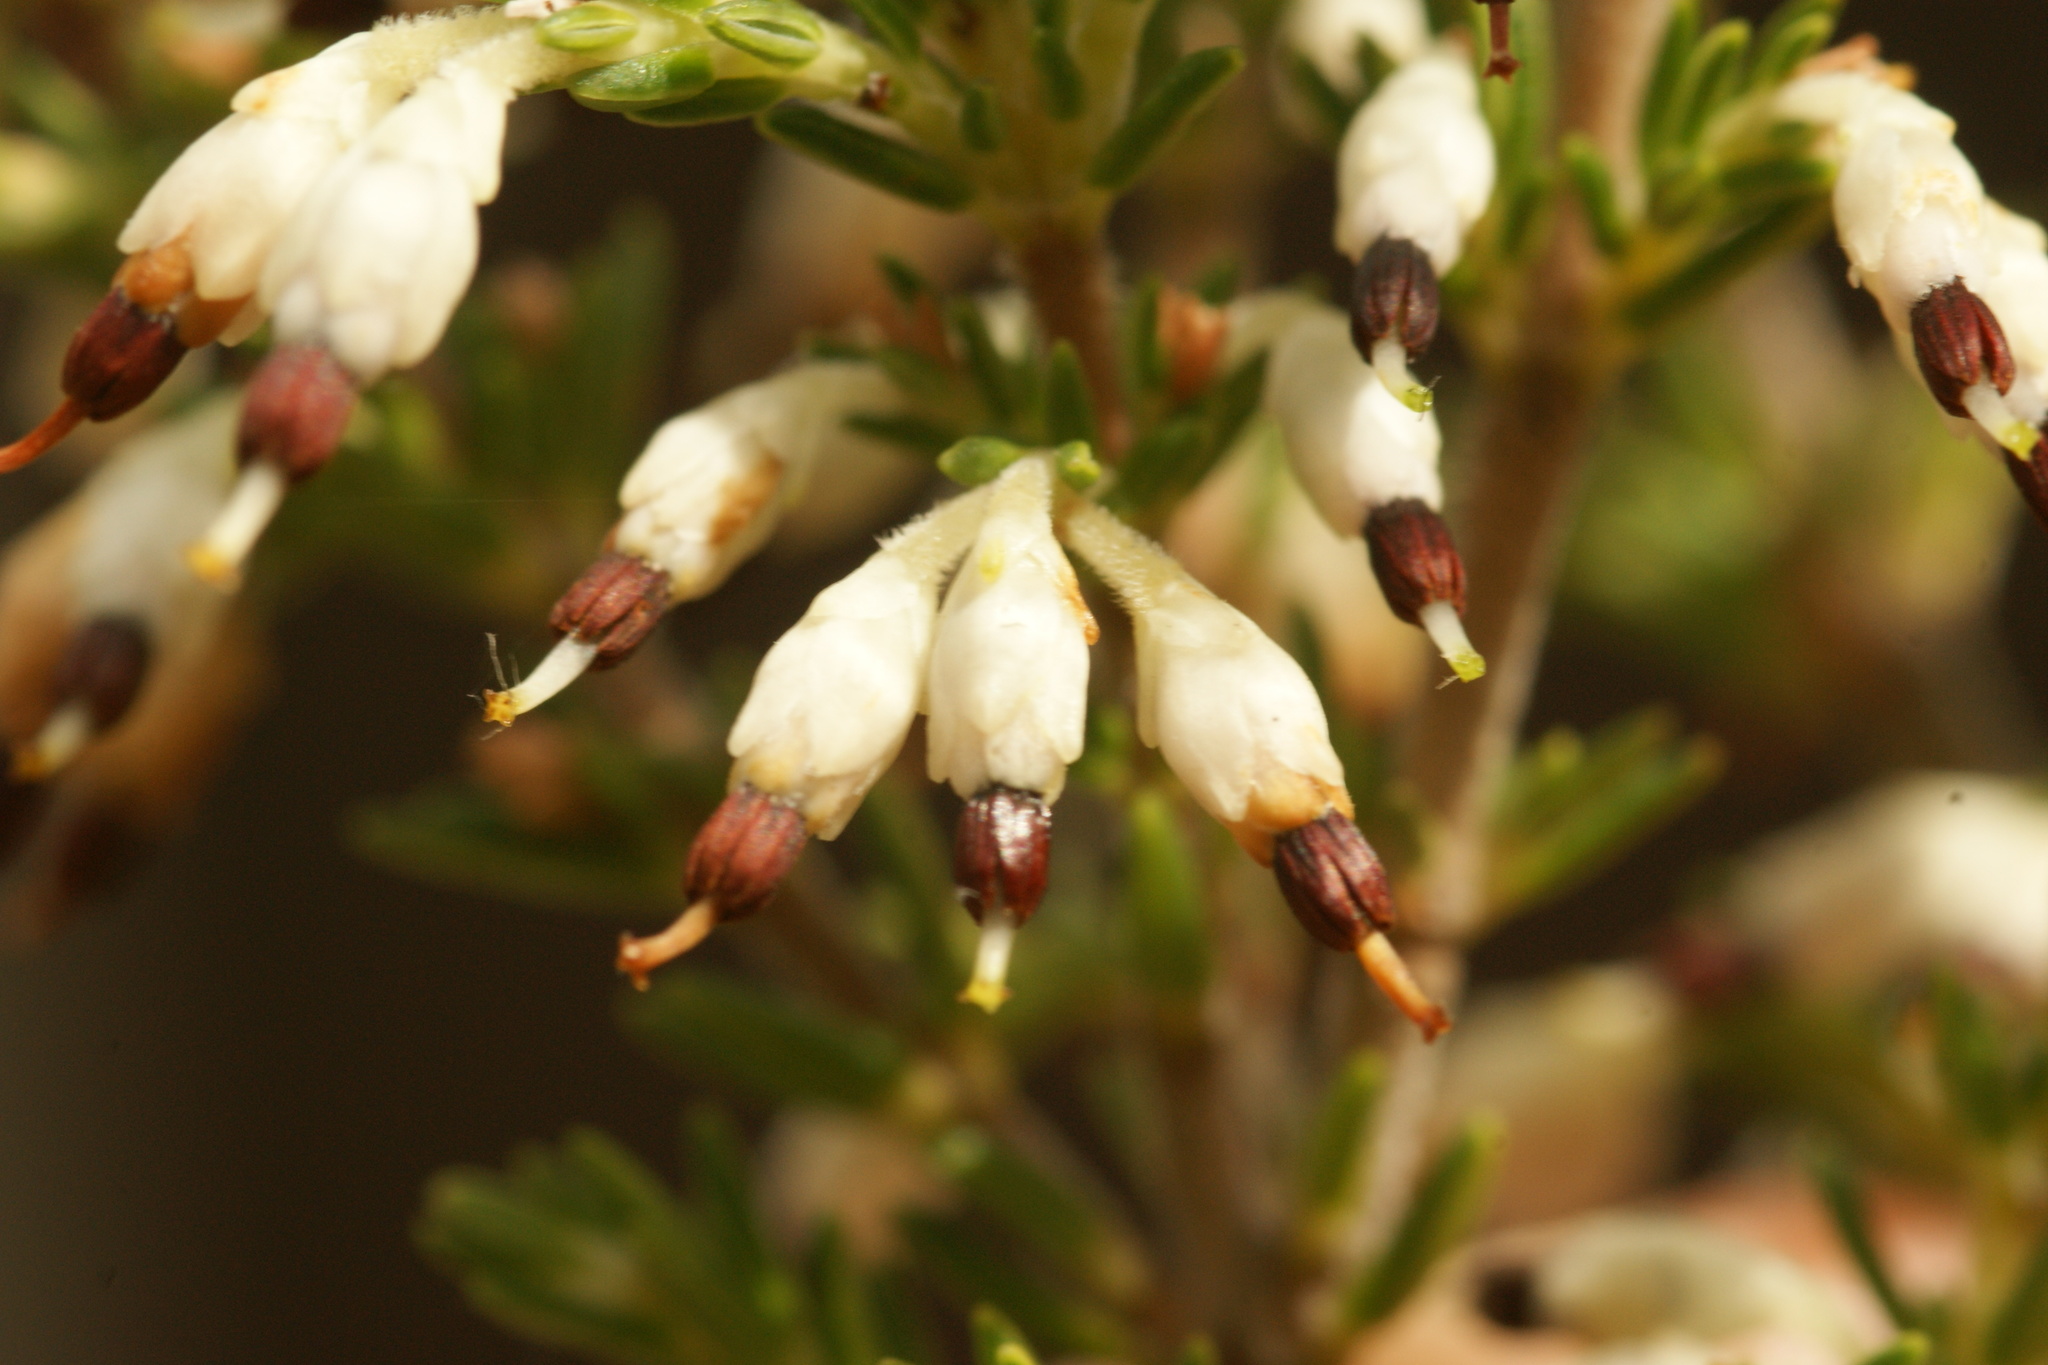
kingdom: Plantae
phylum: Tracheophyta
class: Magnoliopsida
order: Ericales
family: Ericaceae
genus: Erica
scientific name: Erica imbricata
